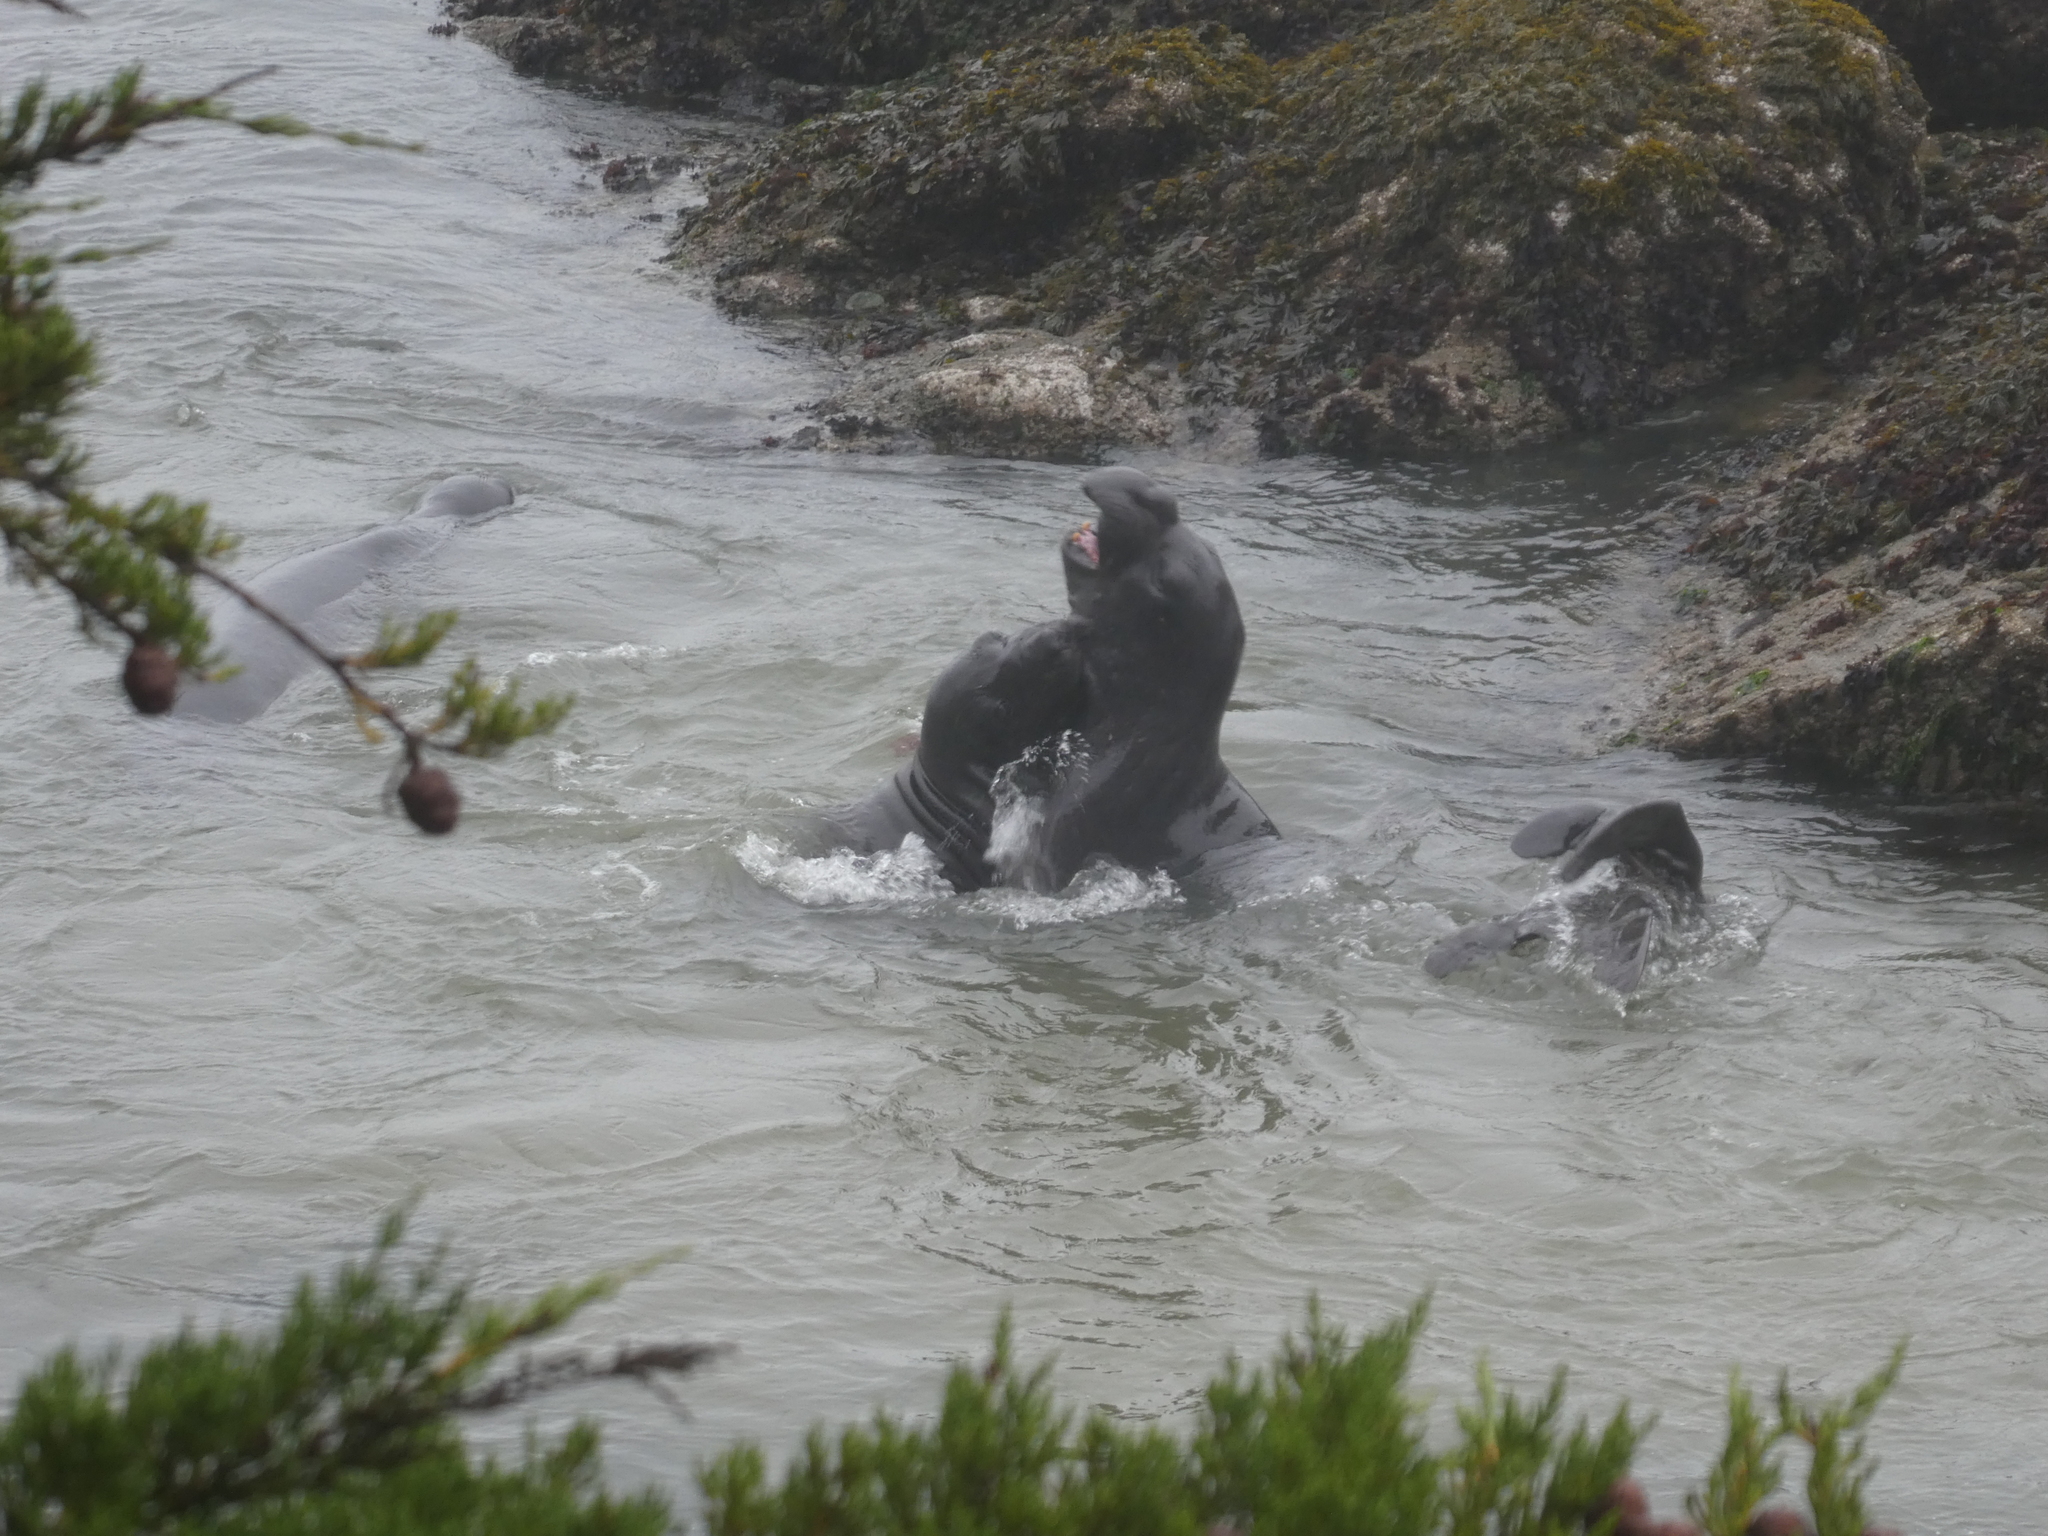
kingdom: Animalia
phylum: Chordata
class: Mammalia
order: Carnivora
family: Phocidae
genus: Mirounga
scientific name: Mirounga angustirostris
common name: Northern elephant seal
